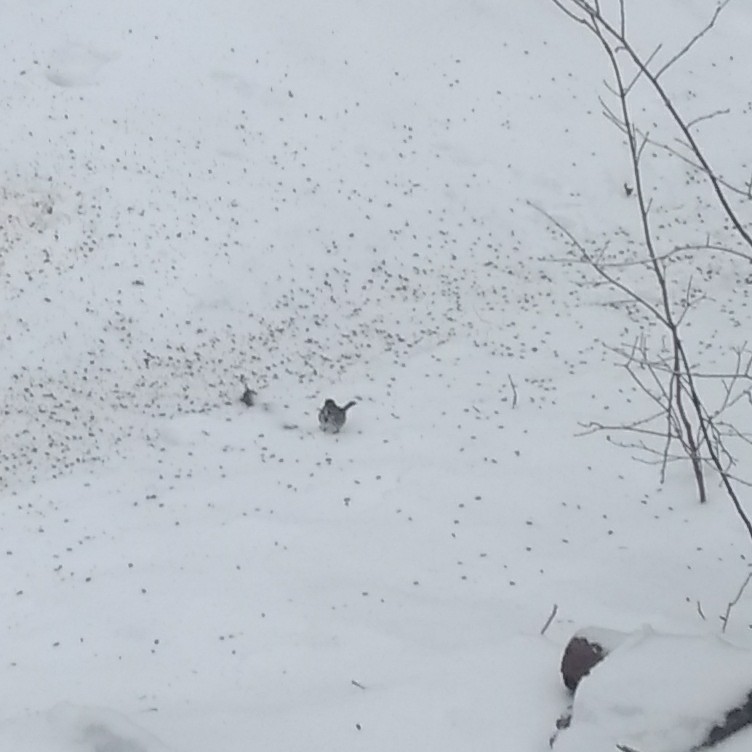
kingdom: Animalia
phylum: Chordata
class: Aves
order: Passeriformes
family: Passerellidae
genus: Melospiza
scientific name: Melospiza melodia
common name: Song sparrow
